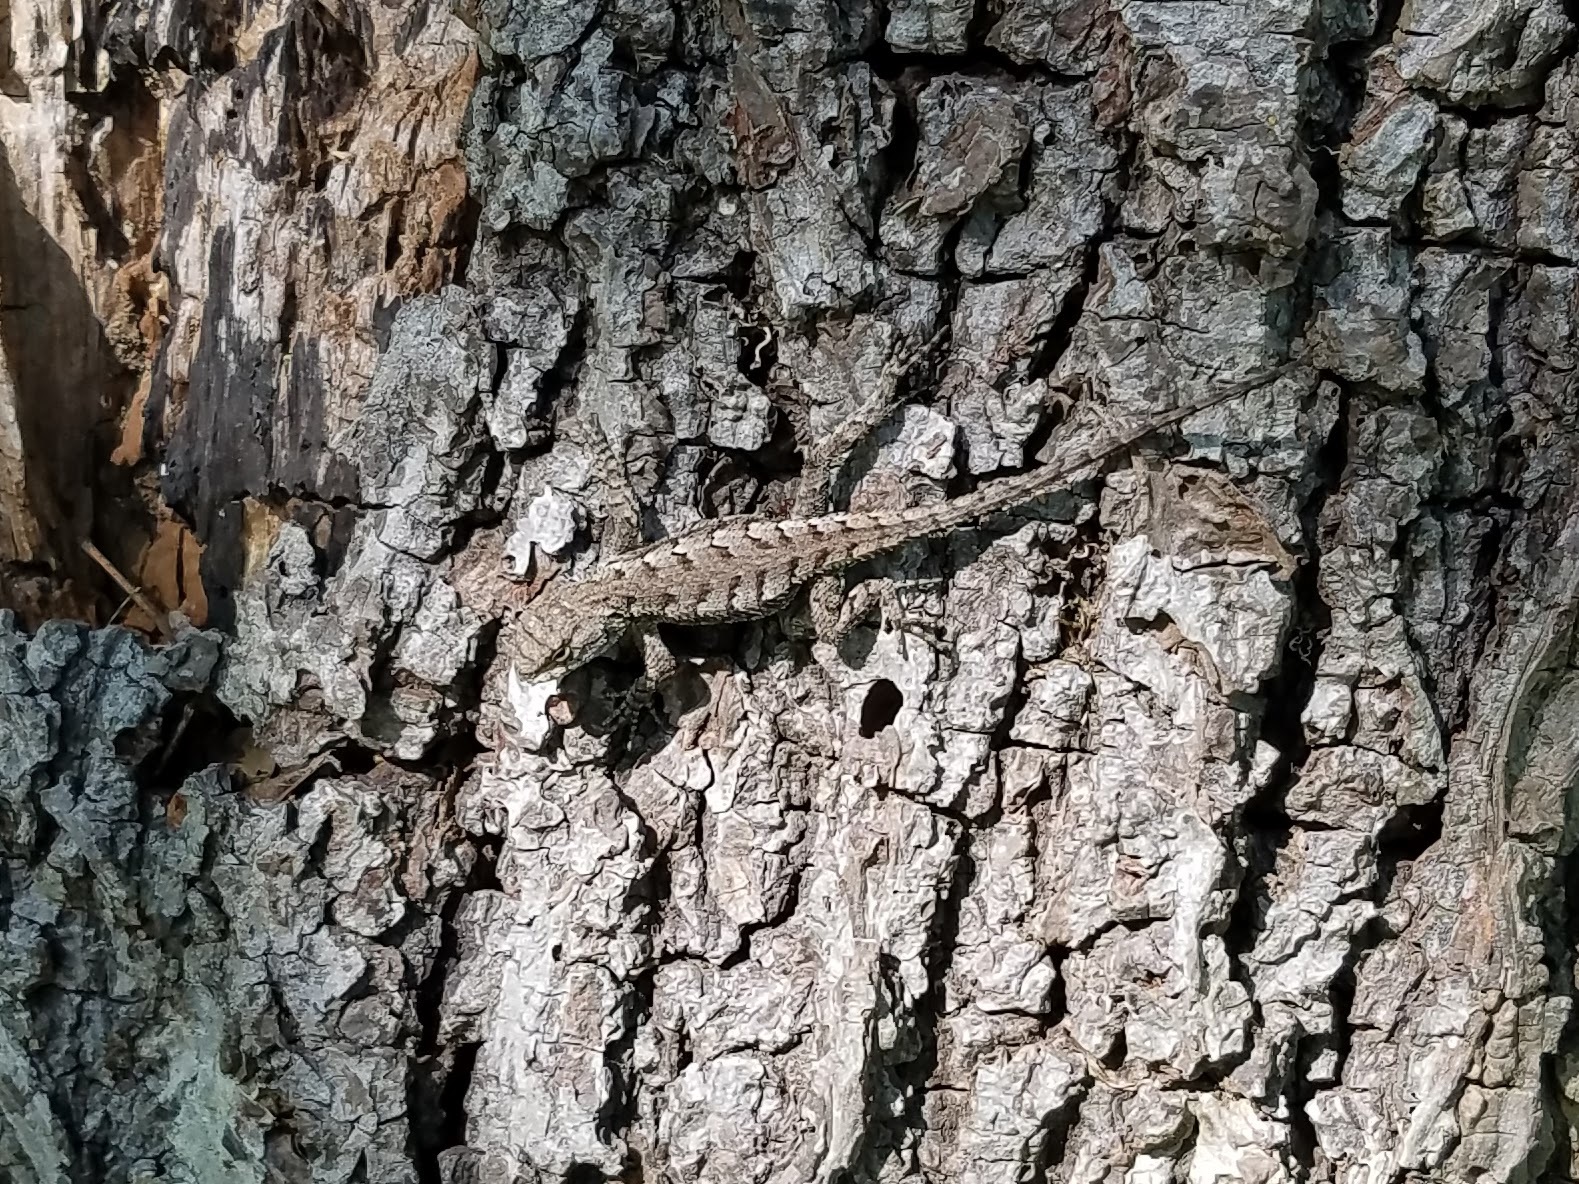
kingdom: Animalia
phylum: Chordata
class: Squamata
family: Phrynosomatidae
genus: Sceloporus
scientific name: Sceloporus undulatus
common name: Eastern fence lizard
